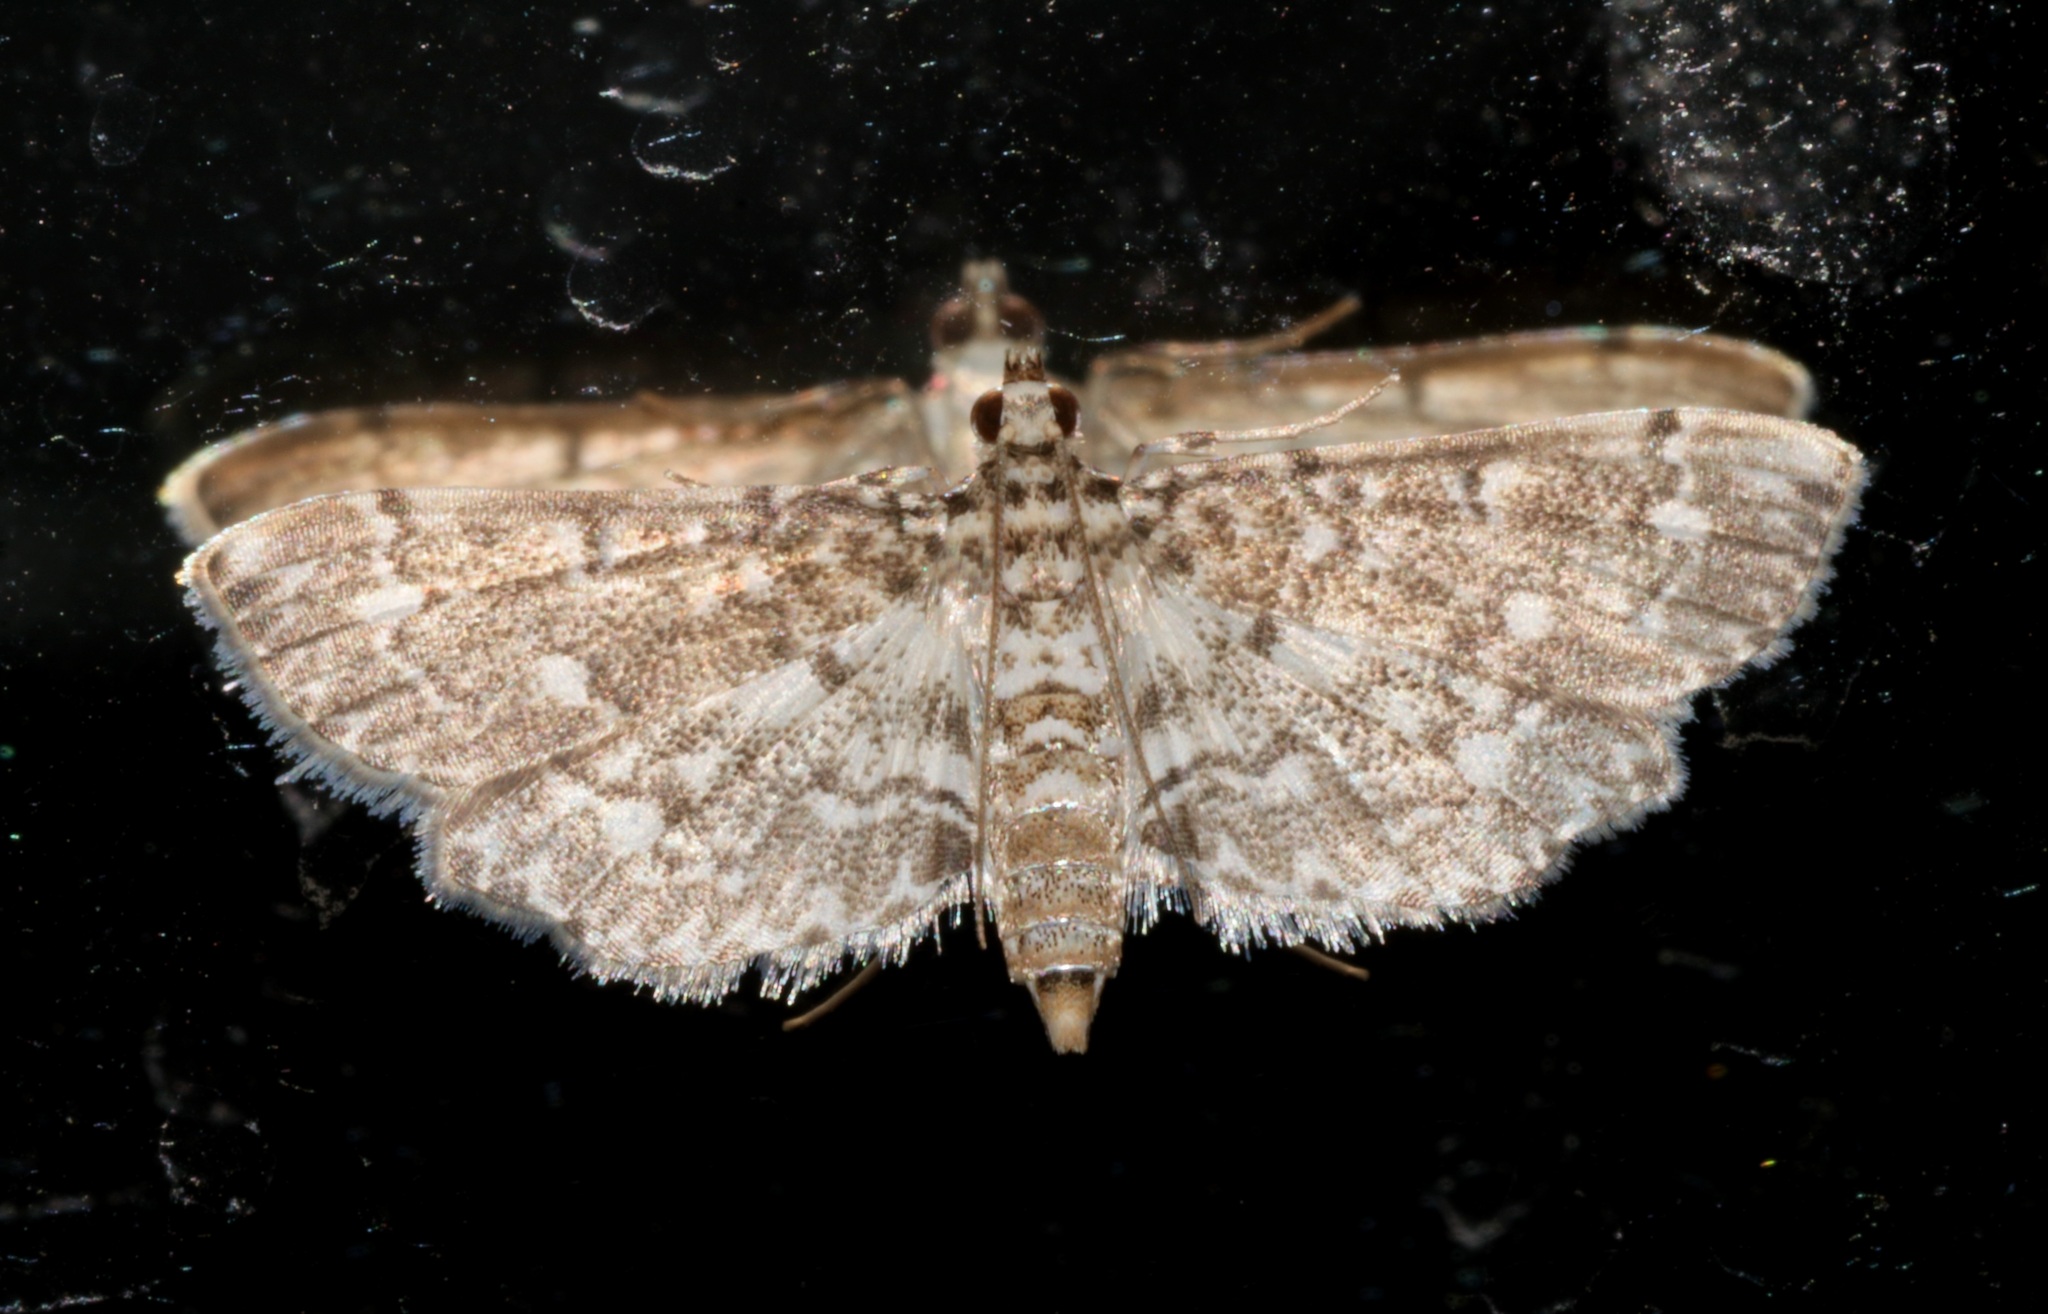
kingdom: Animalia
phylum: Arthropoda
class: Insecta
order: Lepidoptera
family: Crambidae
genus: Eurrhyparodes
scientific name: Eurrhyparodes nymphulalis
